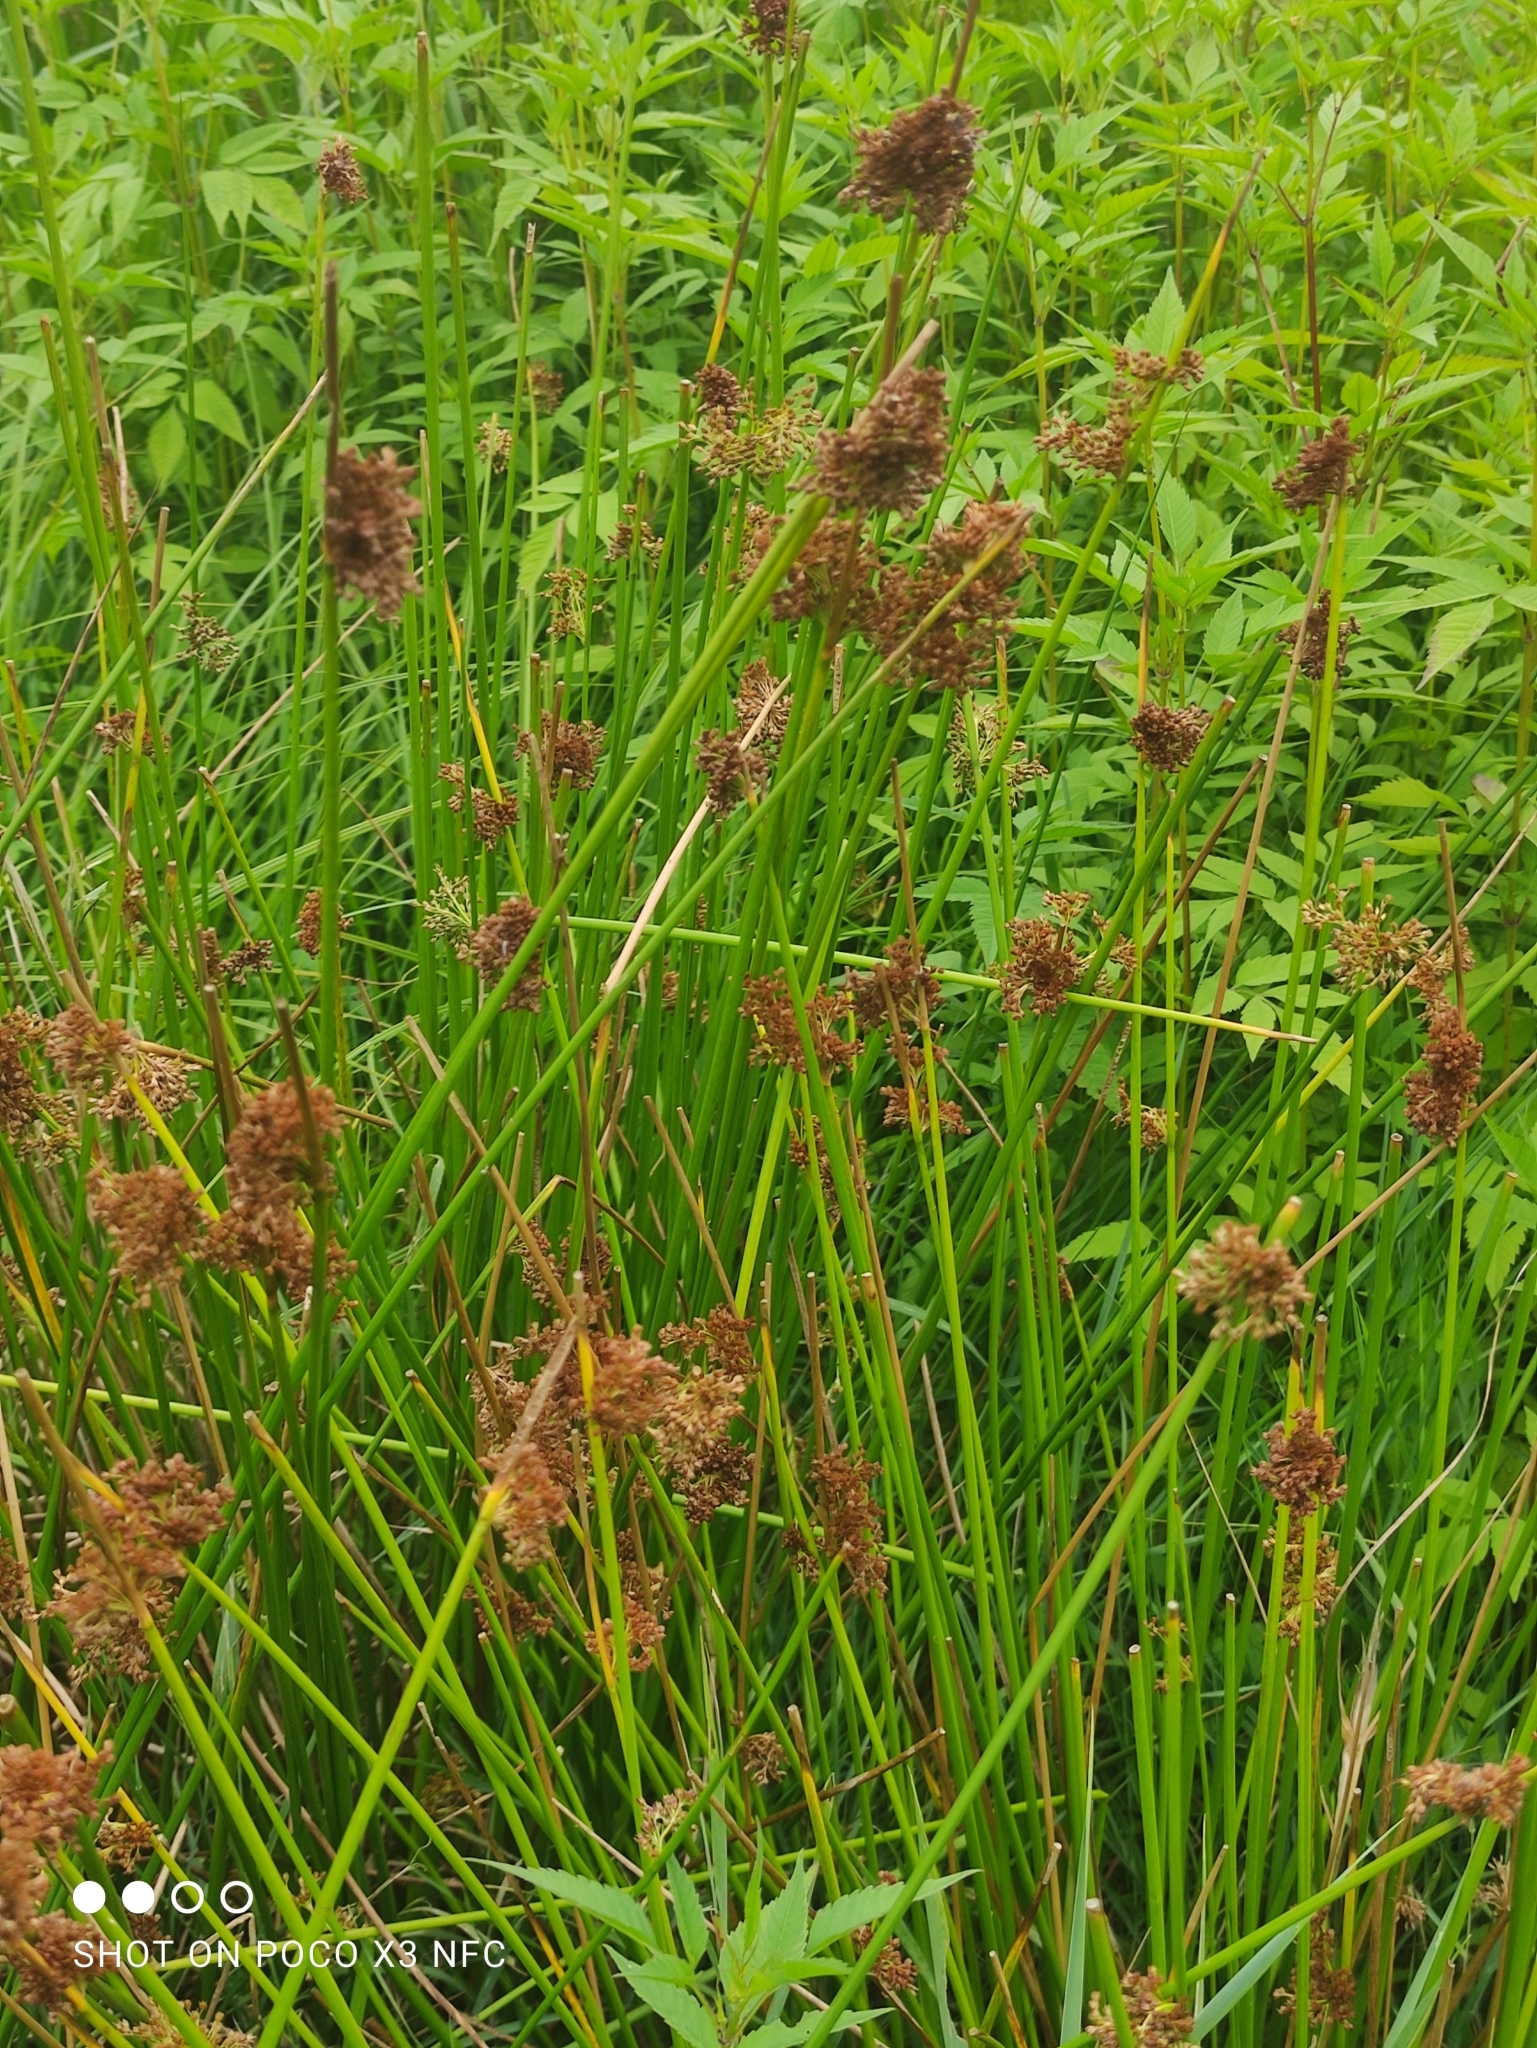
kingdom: Plantae
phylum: Tracheophyta
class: Liliopsida
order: Poales
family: Juncaceae
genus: Juncus
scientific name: Juncus effusus
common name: Soft rush
